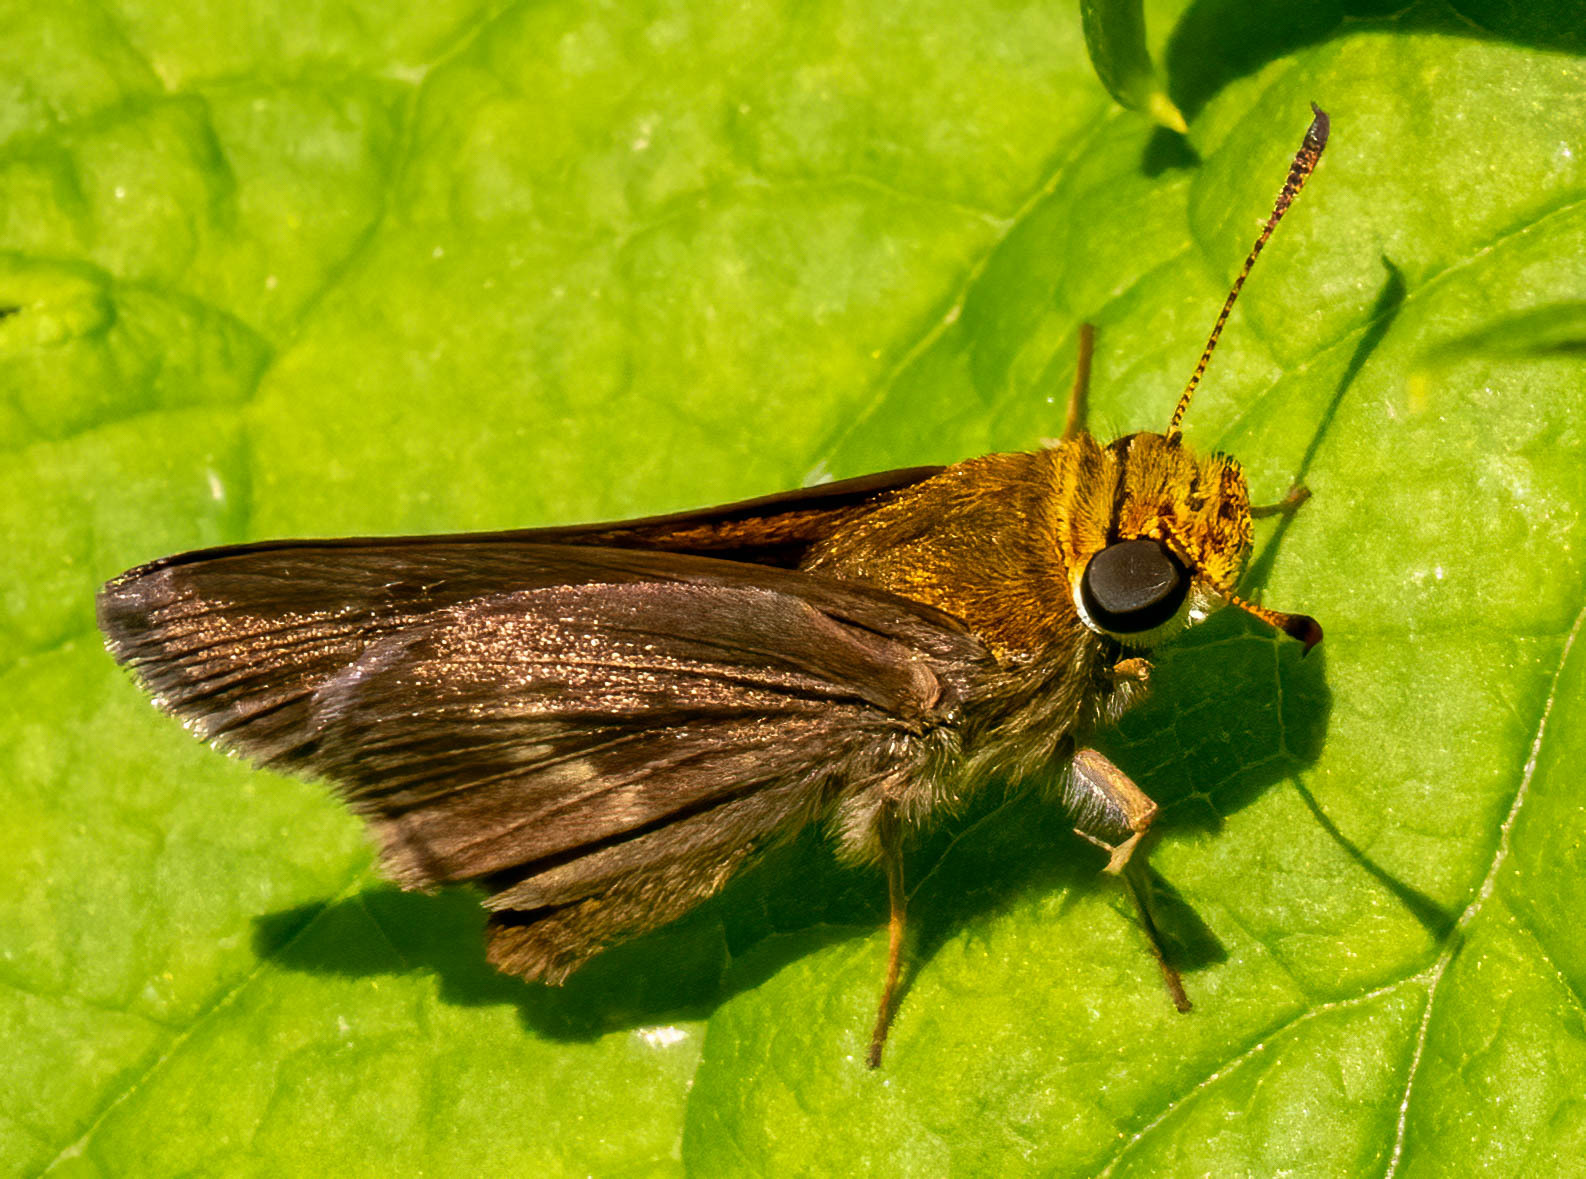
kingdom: Animalia
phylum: Arthropoda
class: Insecta
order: Lepidoptera
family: Hesperiidae
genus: Euphyes
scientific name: Euphyes vestris
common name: Dun skipper
